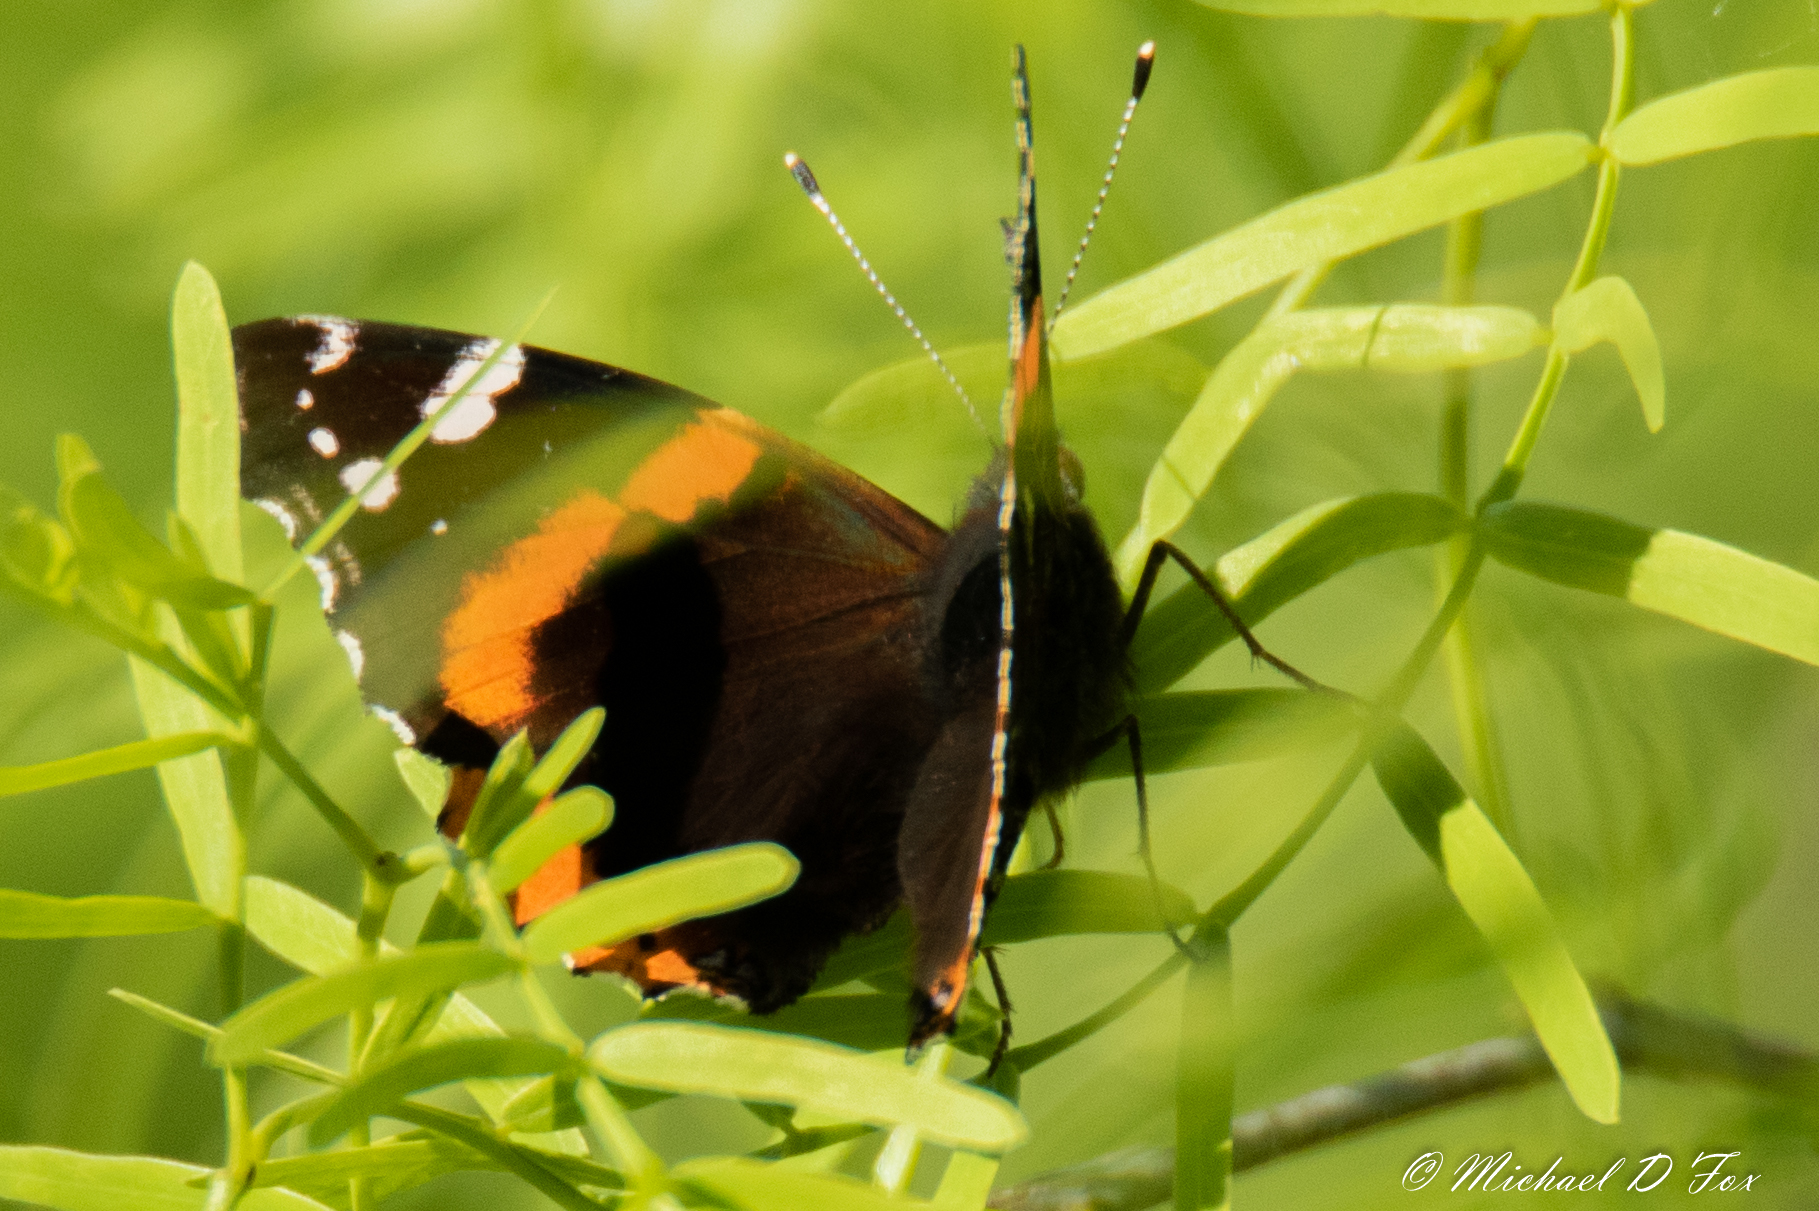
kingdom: Animalia
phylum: Arthropoda
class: Insecta
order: Lepidoptera
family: Nymphalidae
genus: Vanessa
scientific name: Vanessa atalanta
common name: Red admiral
